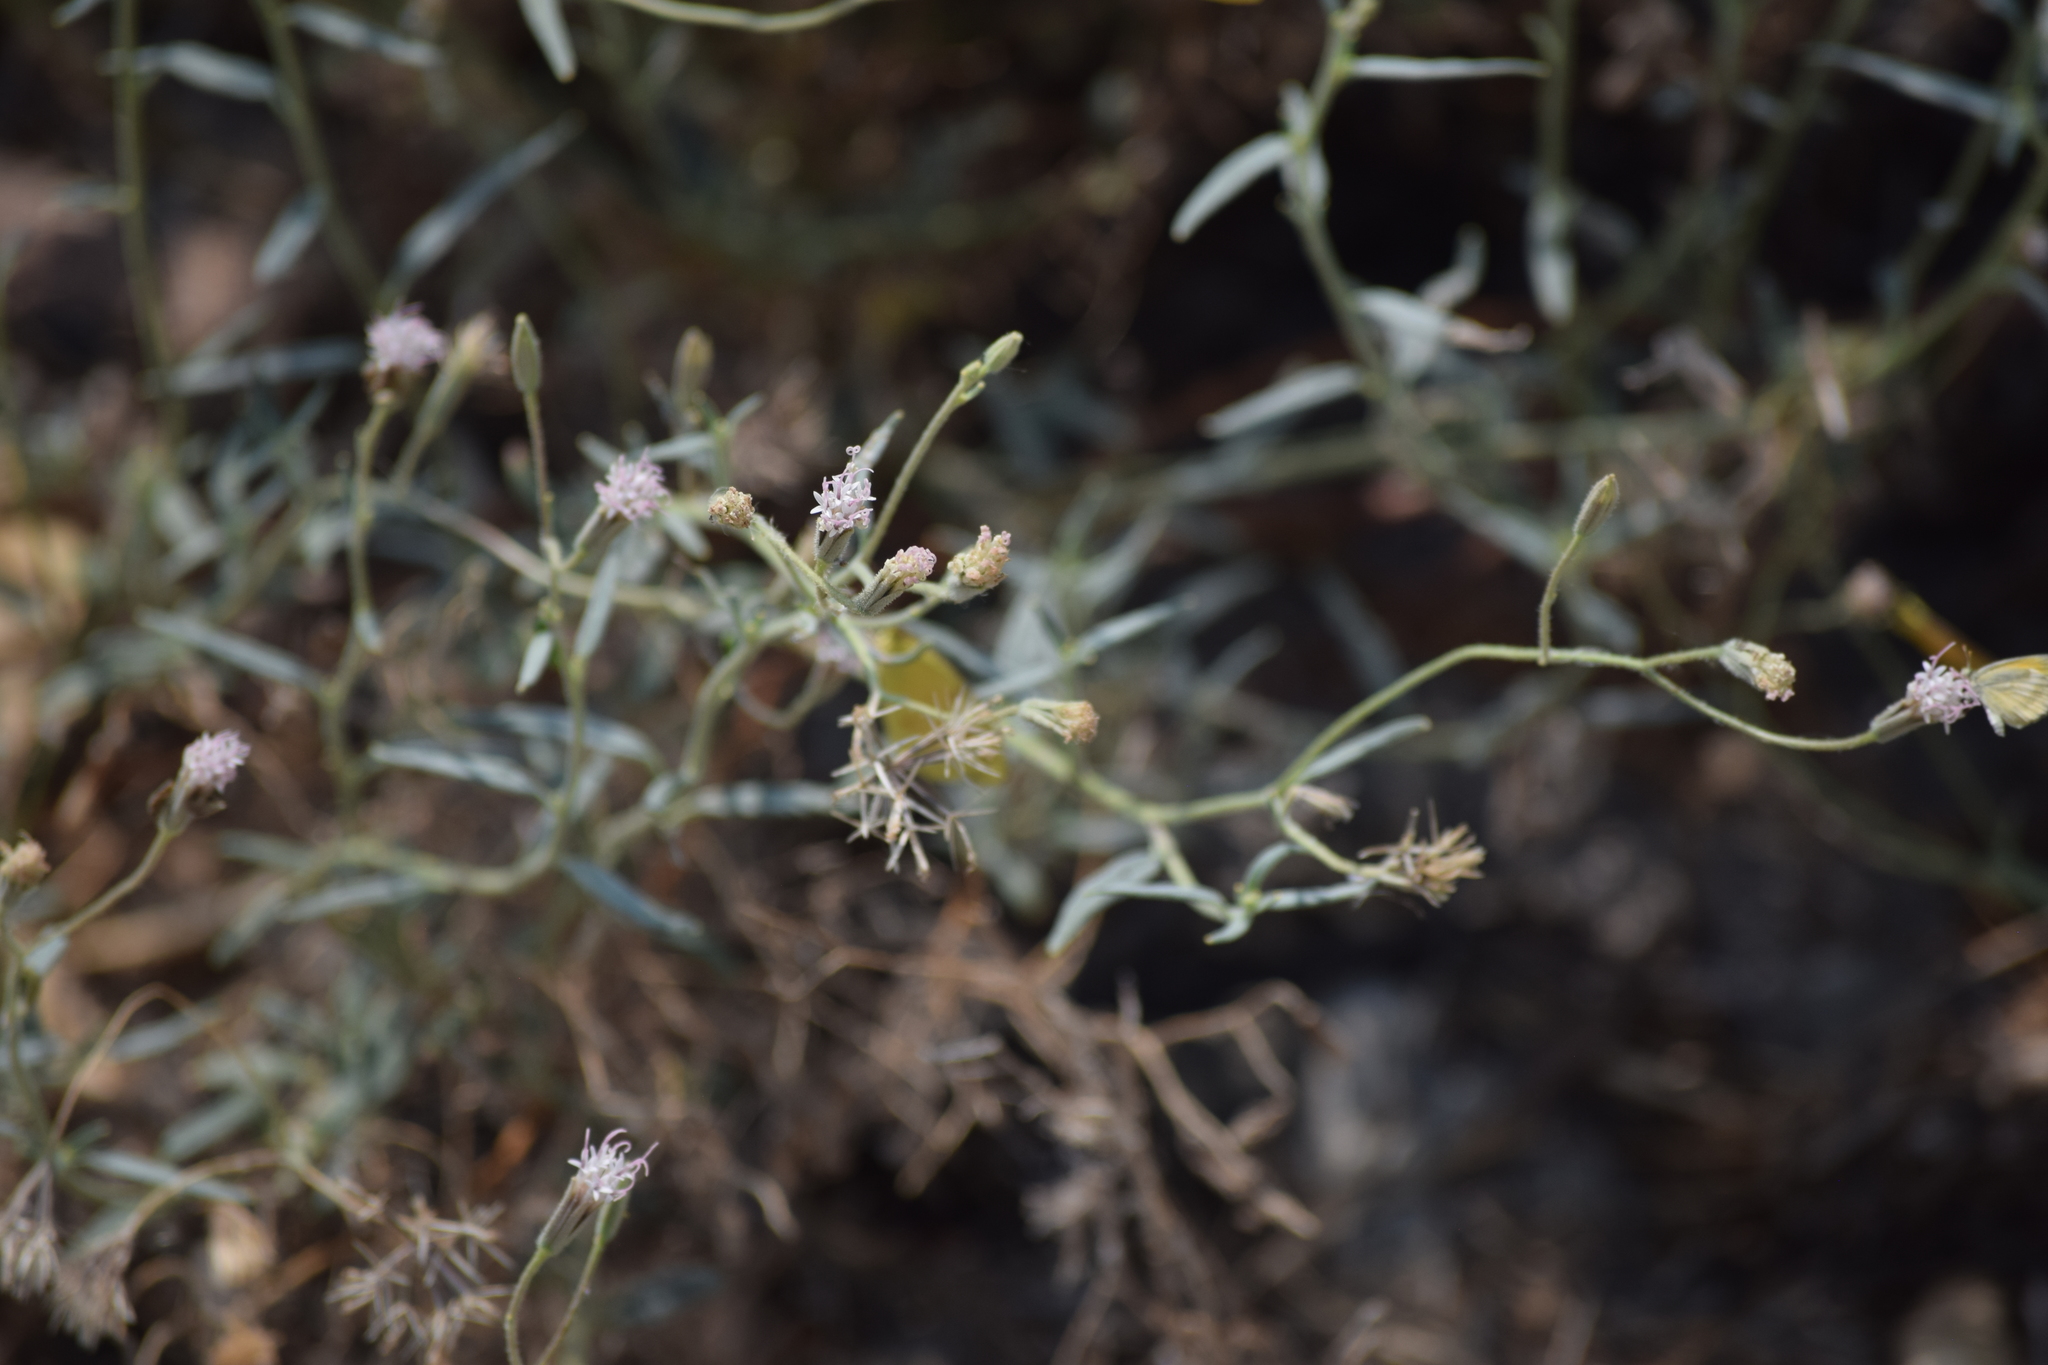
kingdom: Plantae
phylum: Tracheophyta
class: Magnoliopsida
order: Asterales
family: Asteraceae
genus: Palafoxia
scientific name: Palafoxia arida
